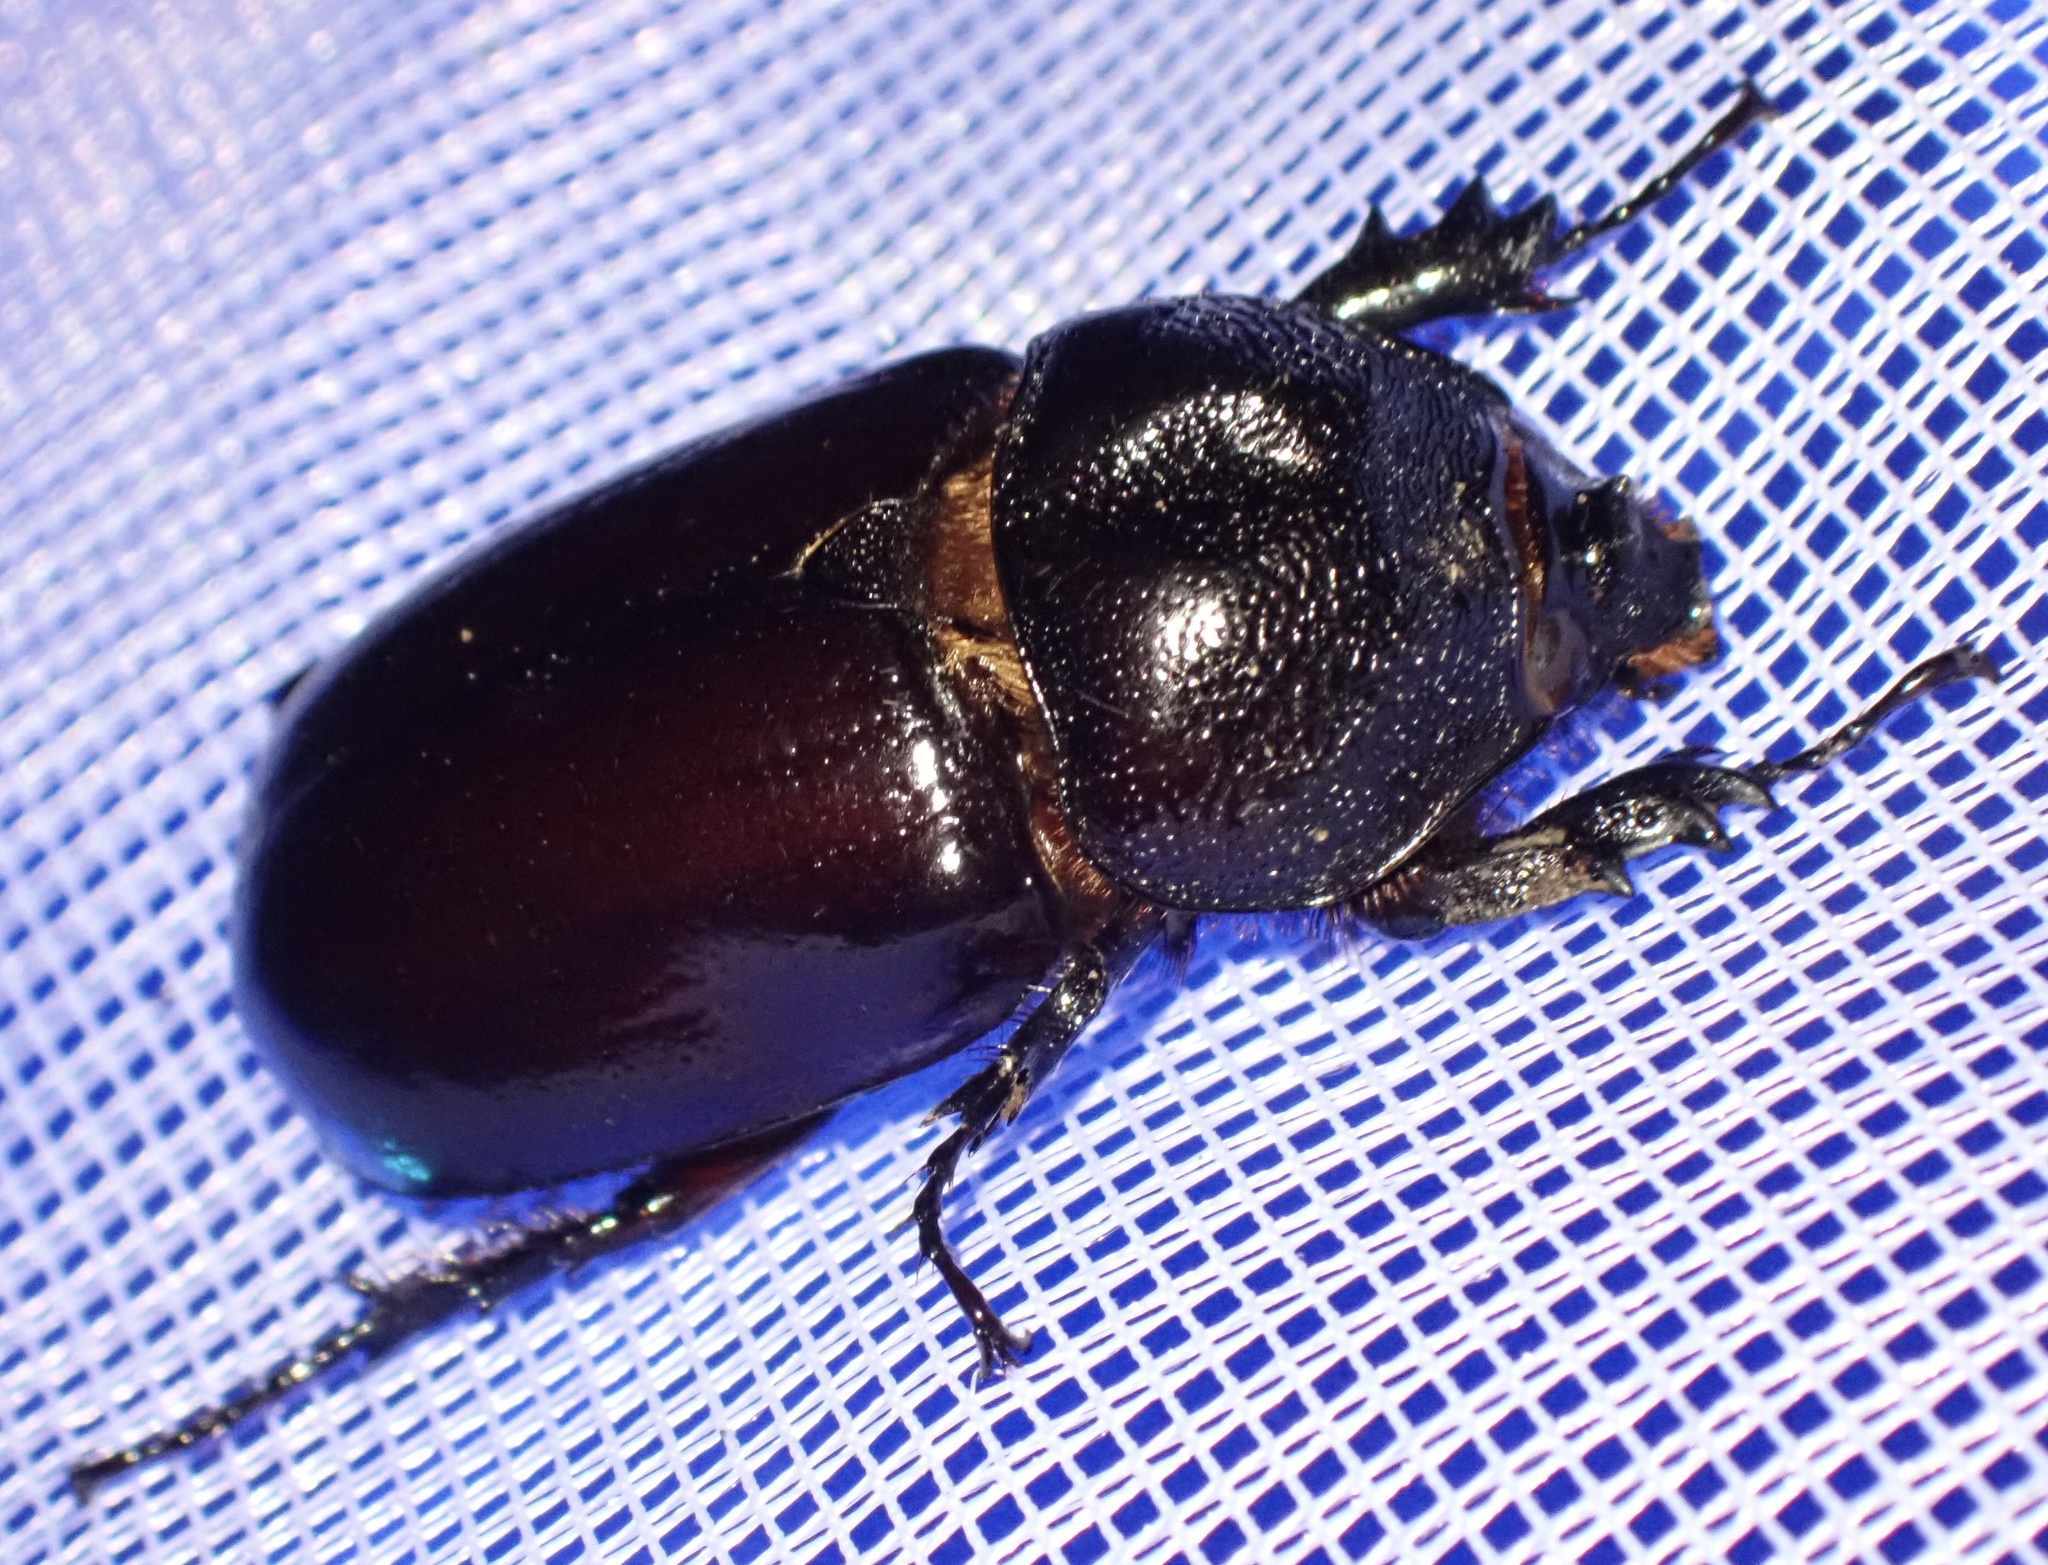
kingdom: Animalia
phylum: Arthropoda
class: Insecta
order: Coleoptera
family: Scarabaeidae
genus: Xylotrupes
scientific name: Xylotrupes carinulus
